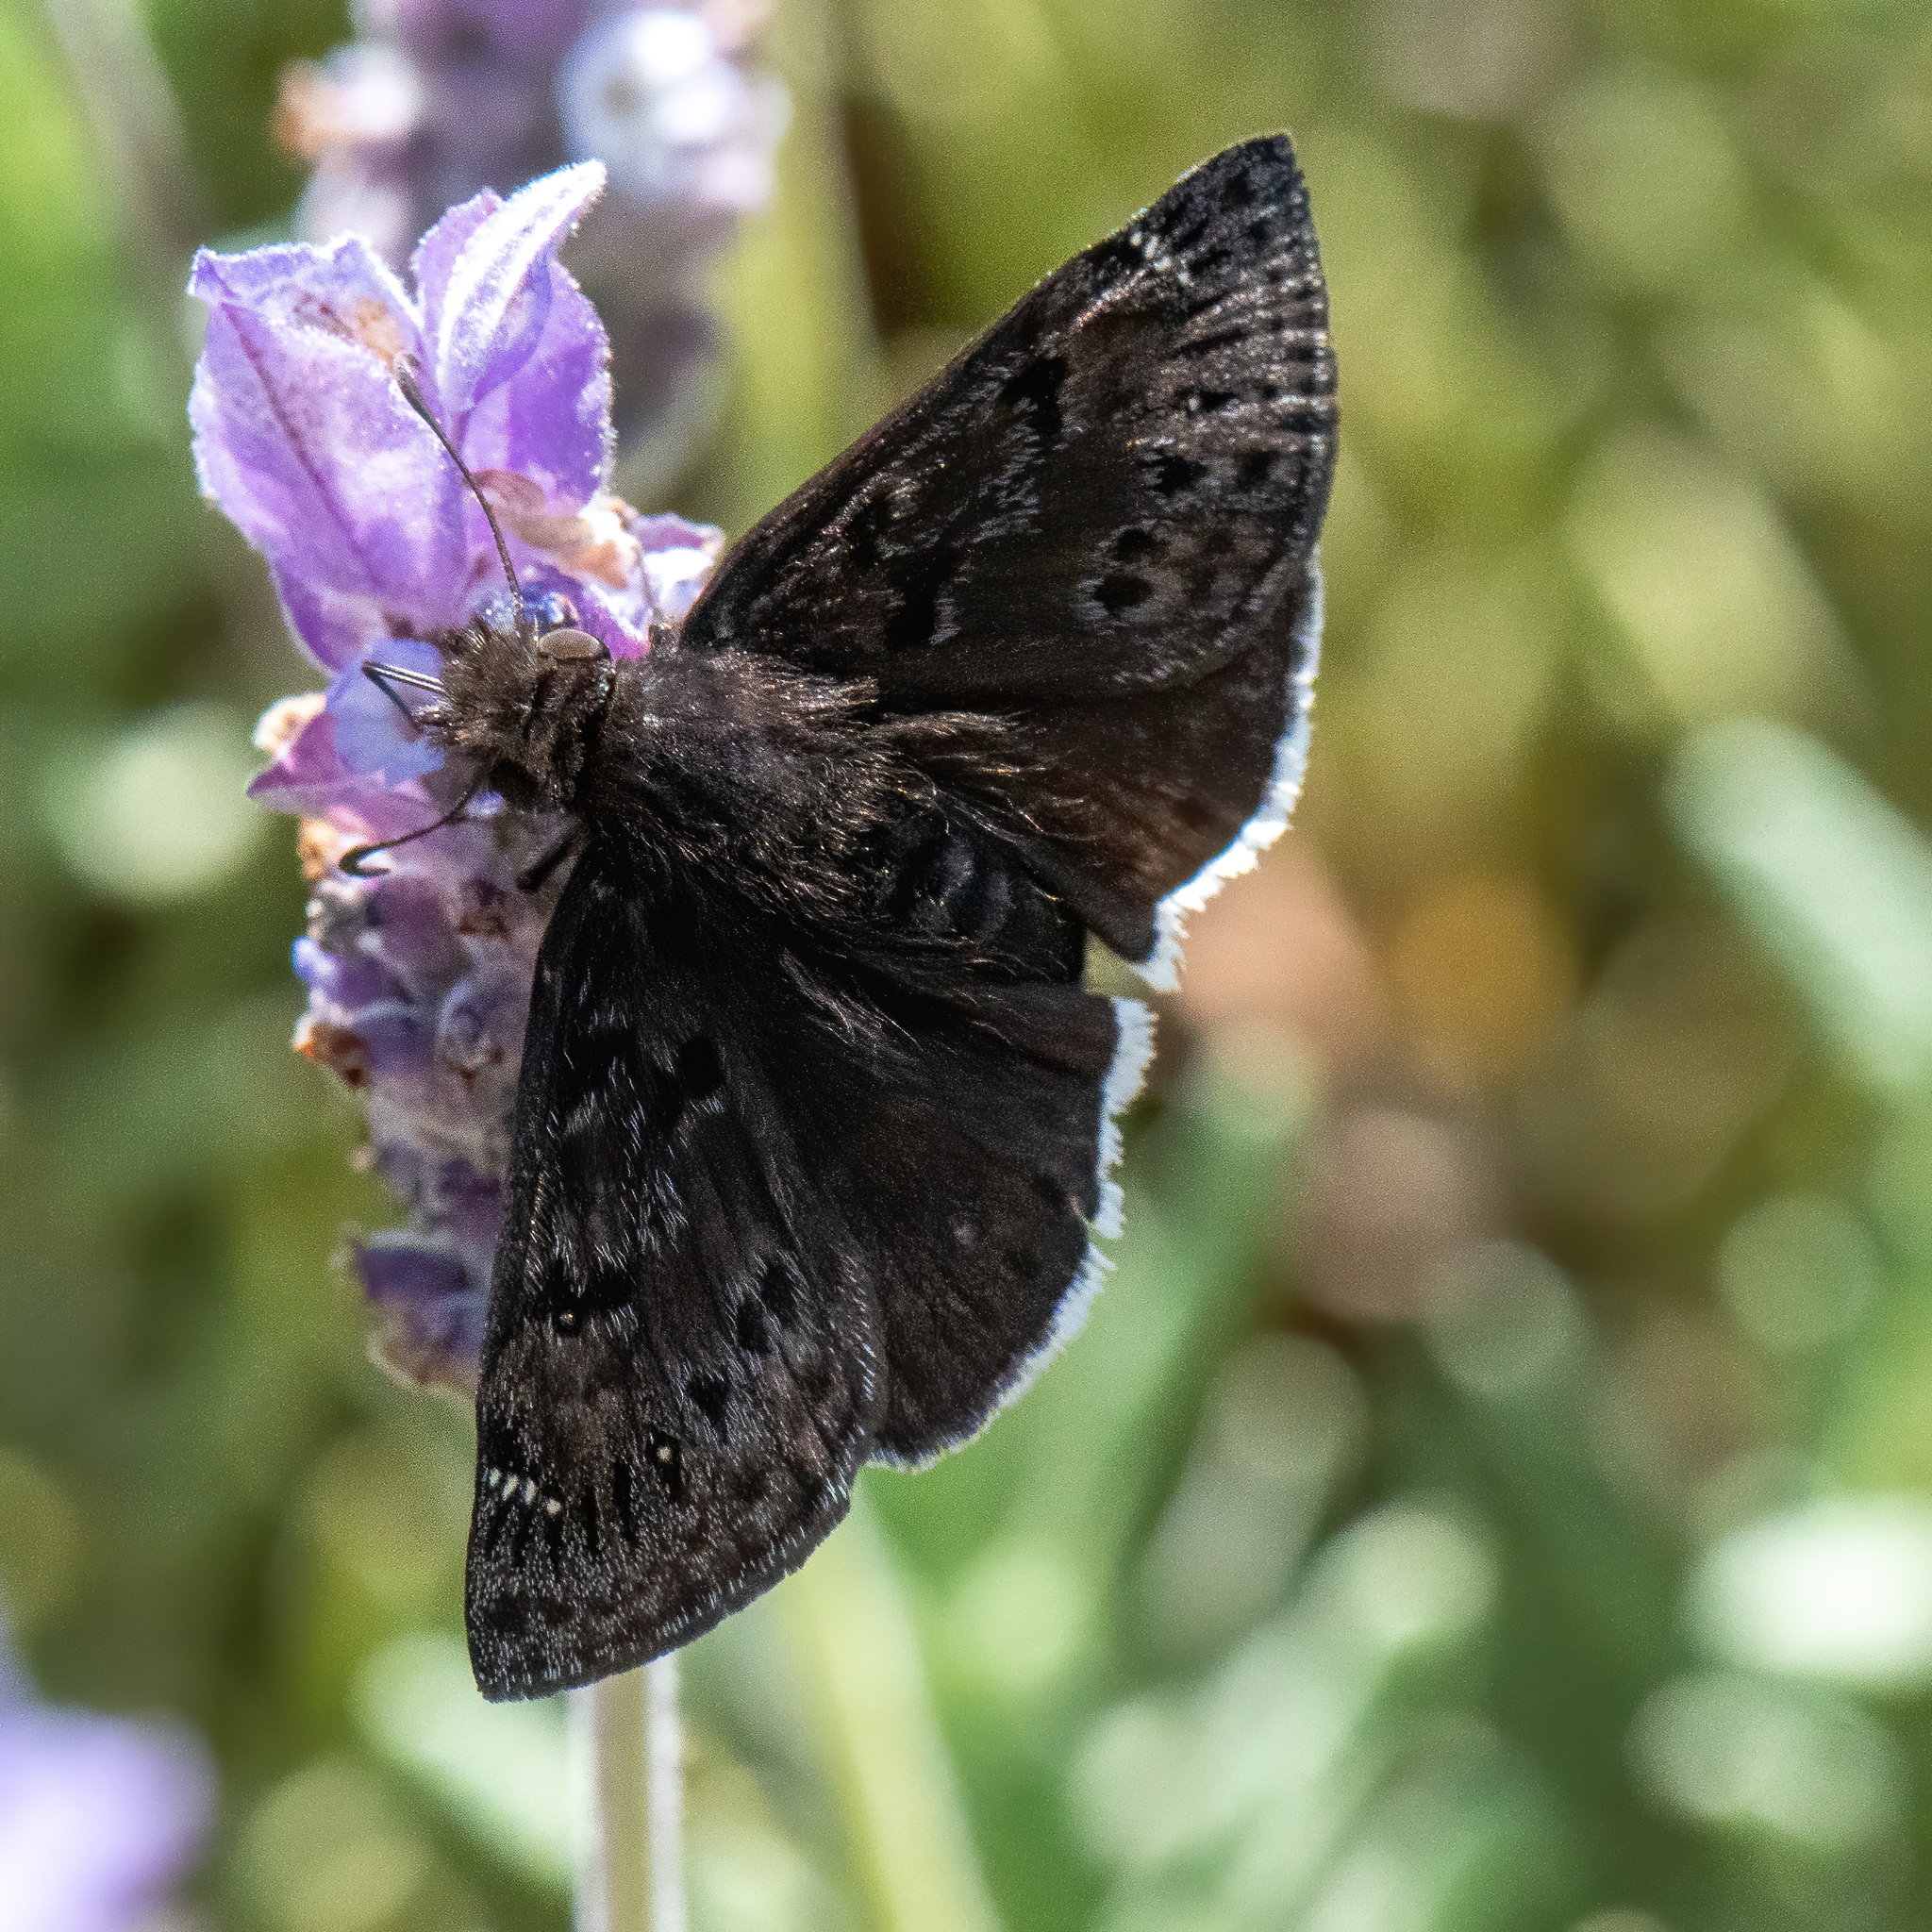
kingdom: Animalia
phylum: Arthropoda
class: Insecta
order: Lepidoptera
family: Hesperiidae
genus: Erynnis
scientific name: Erynnis tristis
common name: Mournful duskywing
